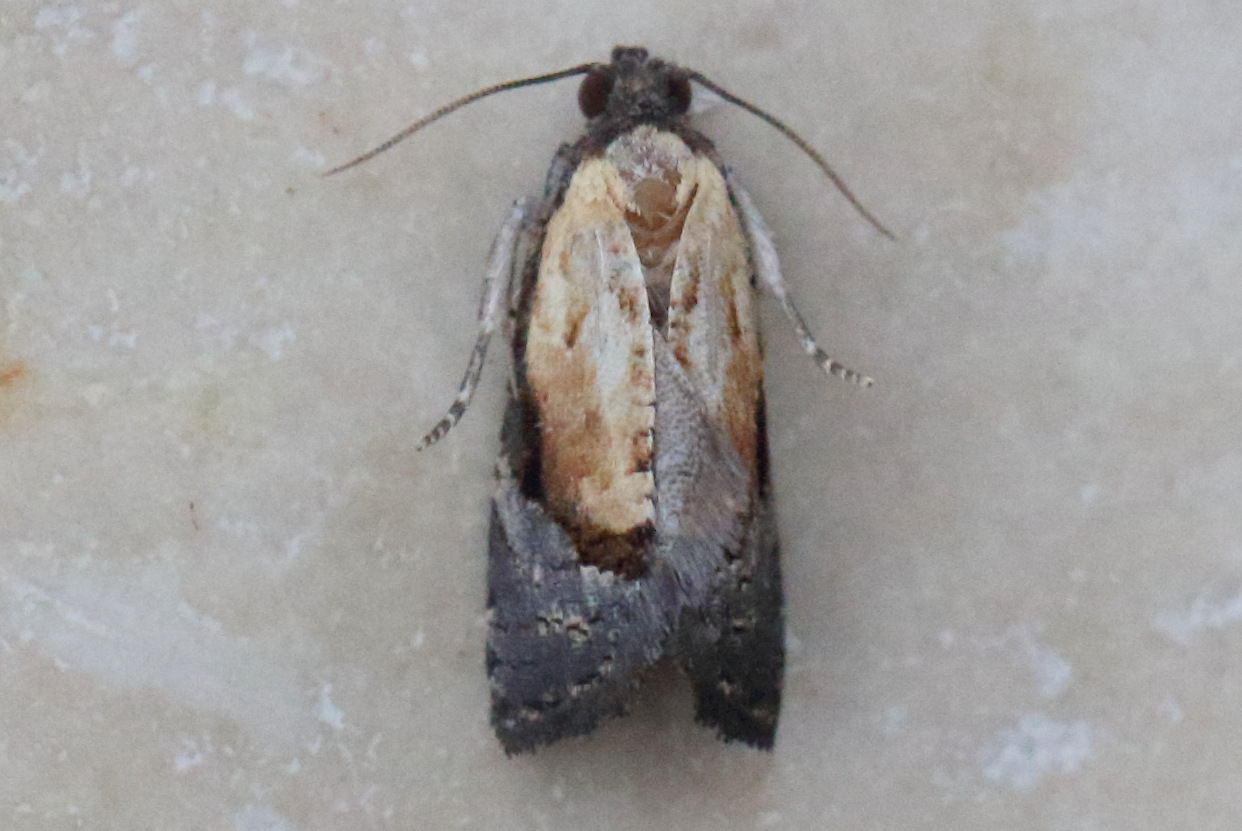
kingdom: Animalia
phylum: Arthropoda
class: Insecta
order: Lepidoptera
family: Tortricidae
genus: Asthenoptycha
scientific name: Asthenoptycha encratopis
